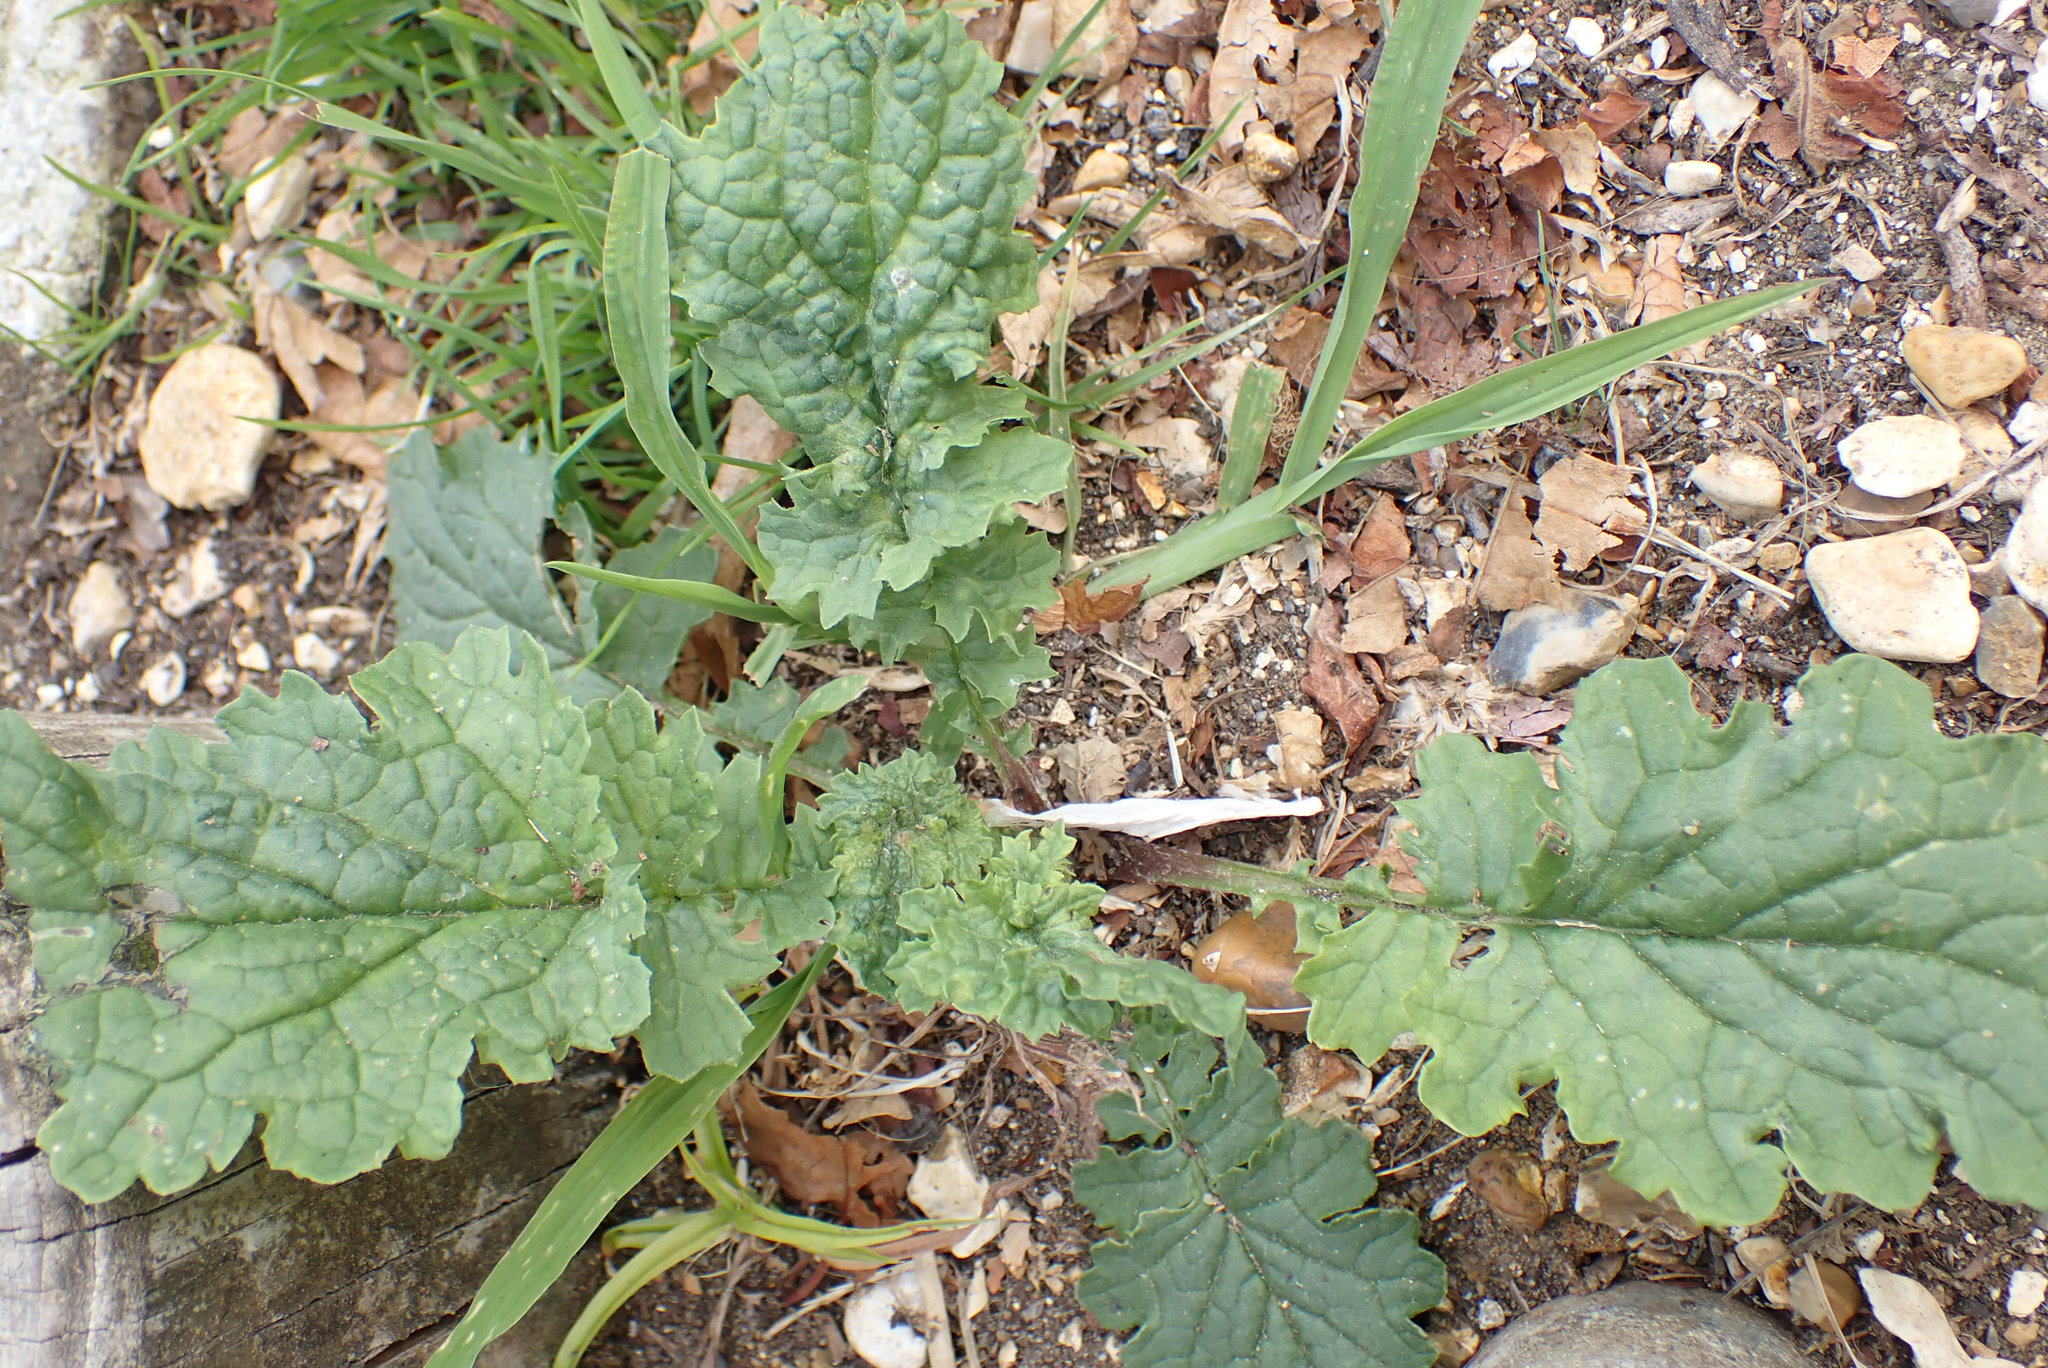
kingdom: Plantae
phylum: Tracheophyta
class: Magnoliopsida
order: Asterales
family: Asteraceae
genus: Jacobaea
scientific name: Jacobaea vulgaris
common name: Stinking willie
